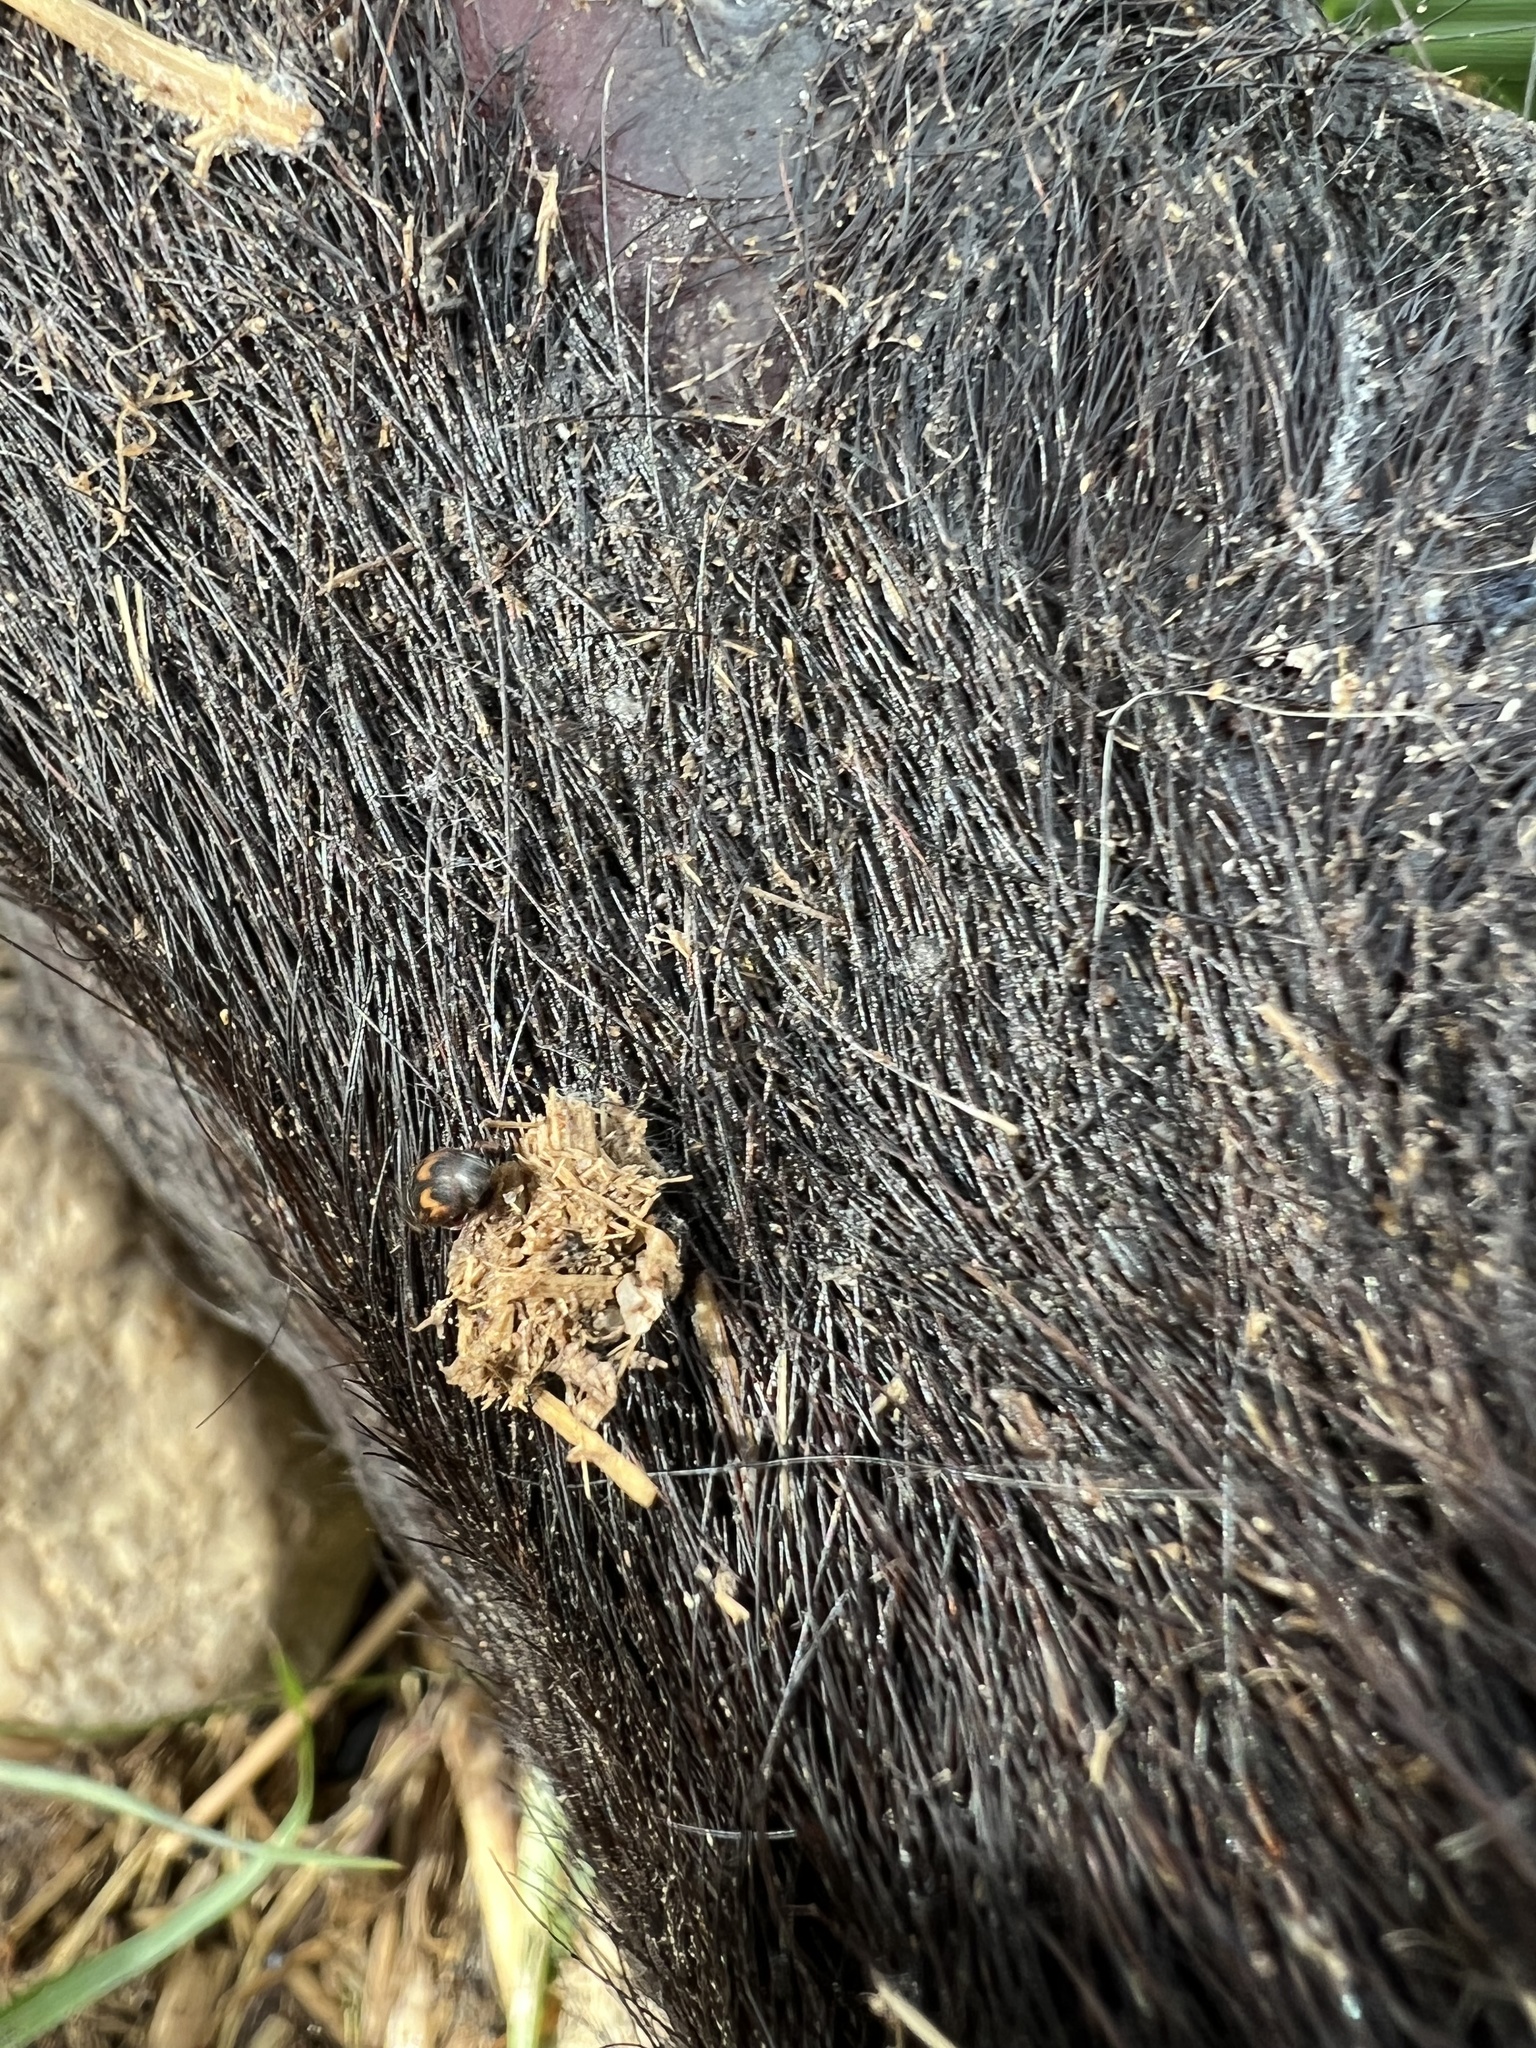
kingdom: Animalia
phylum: Arthropoda
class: Insecta
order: Coleoptera
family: Nitidulidae
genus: Nitidula
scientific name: Nitidula ziczac
